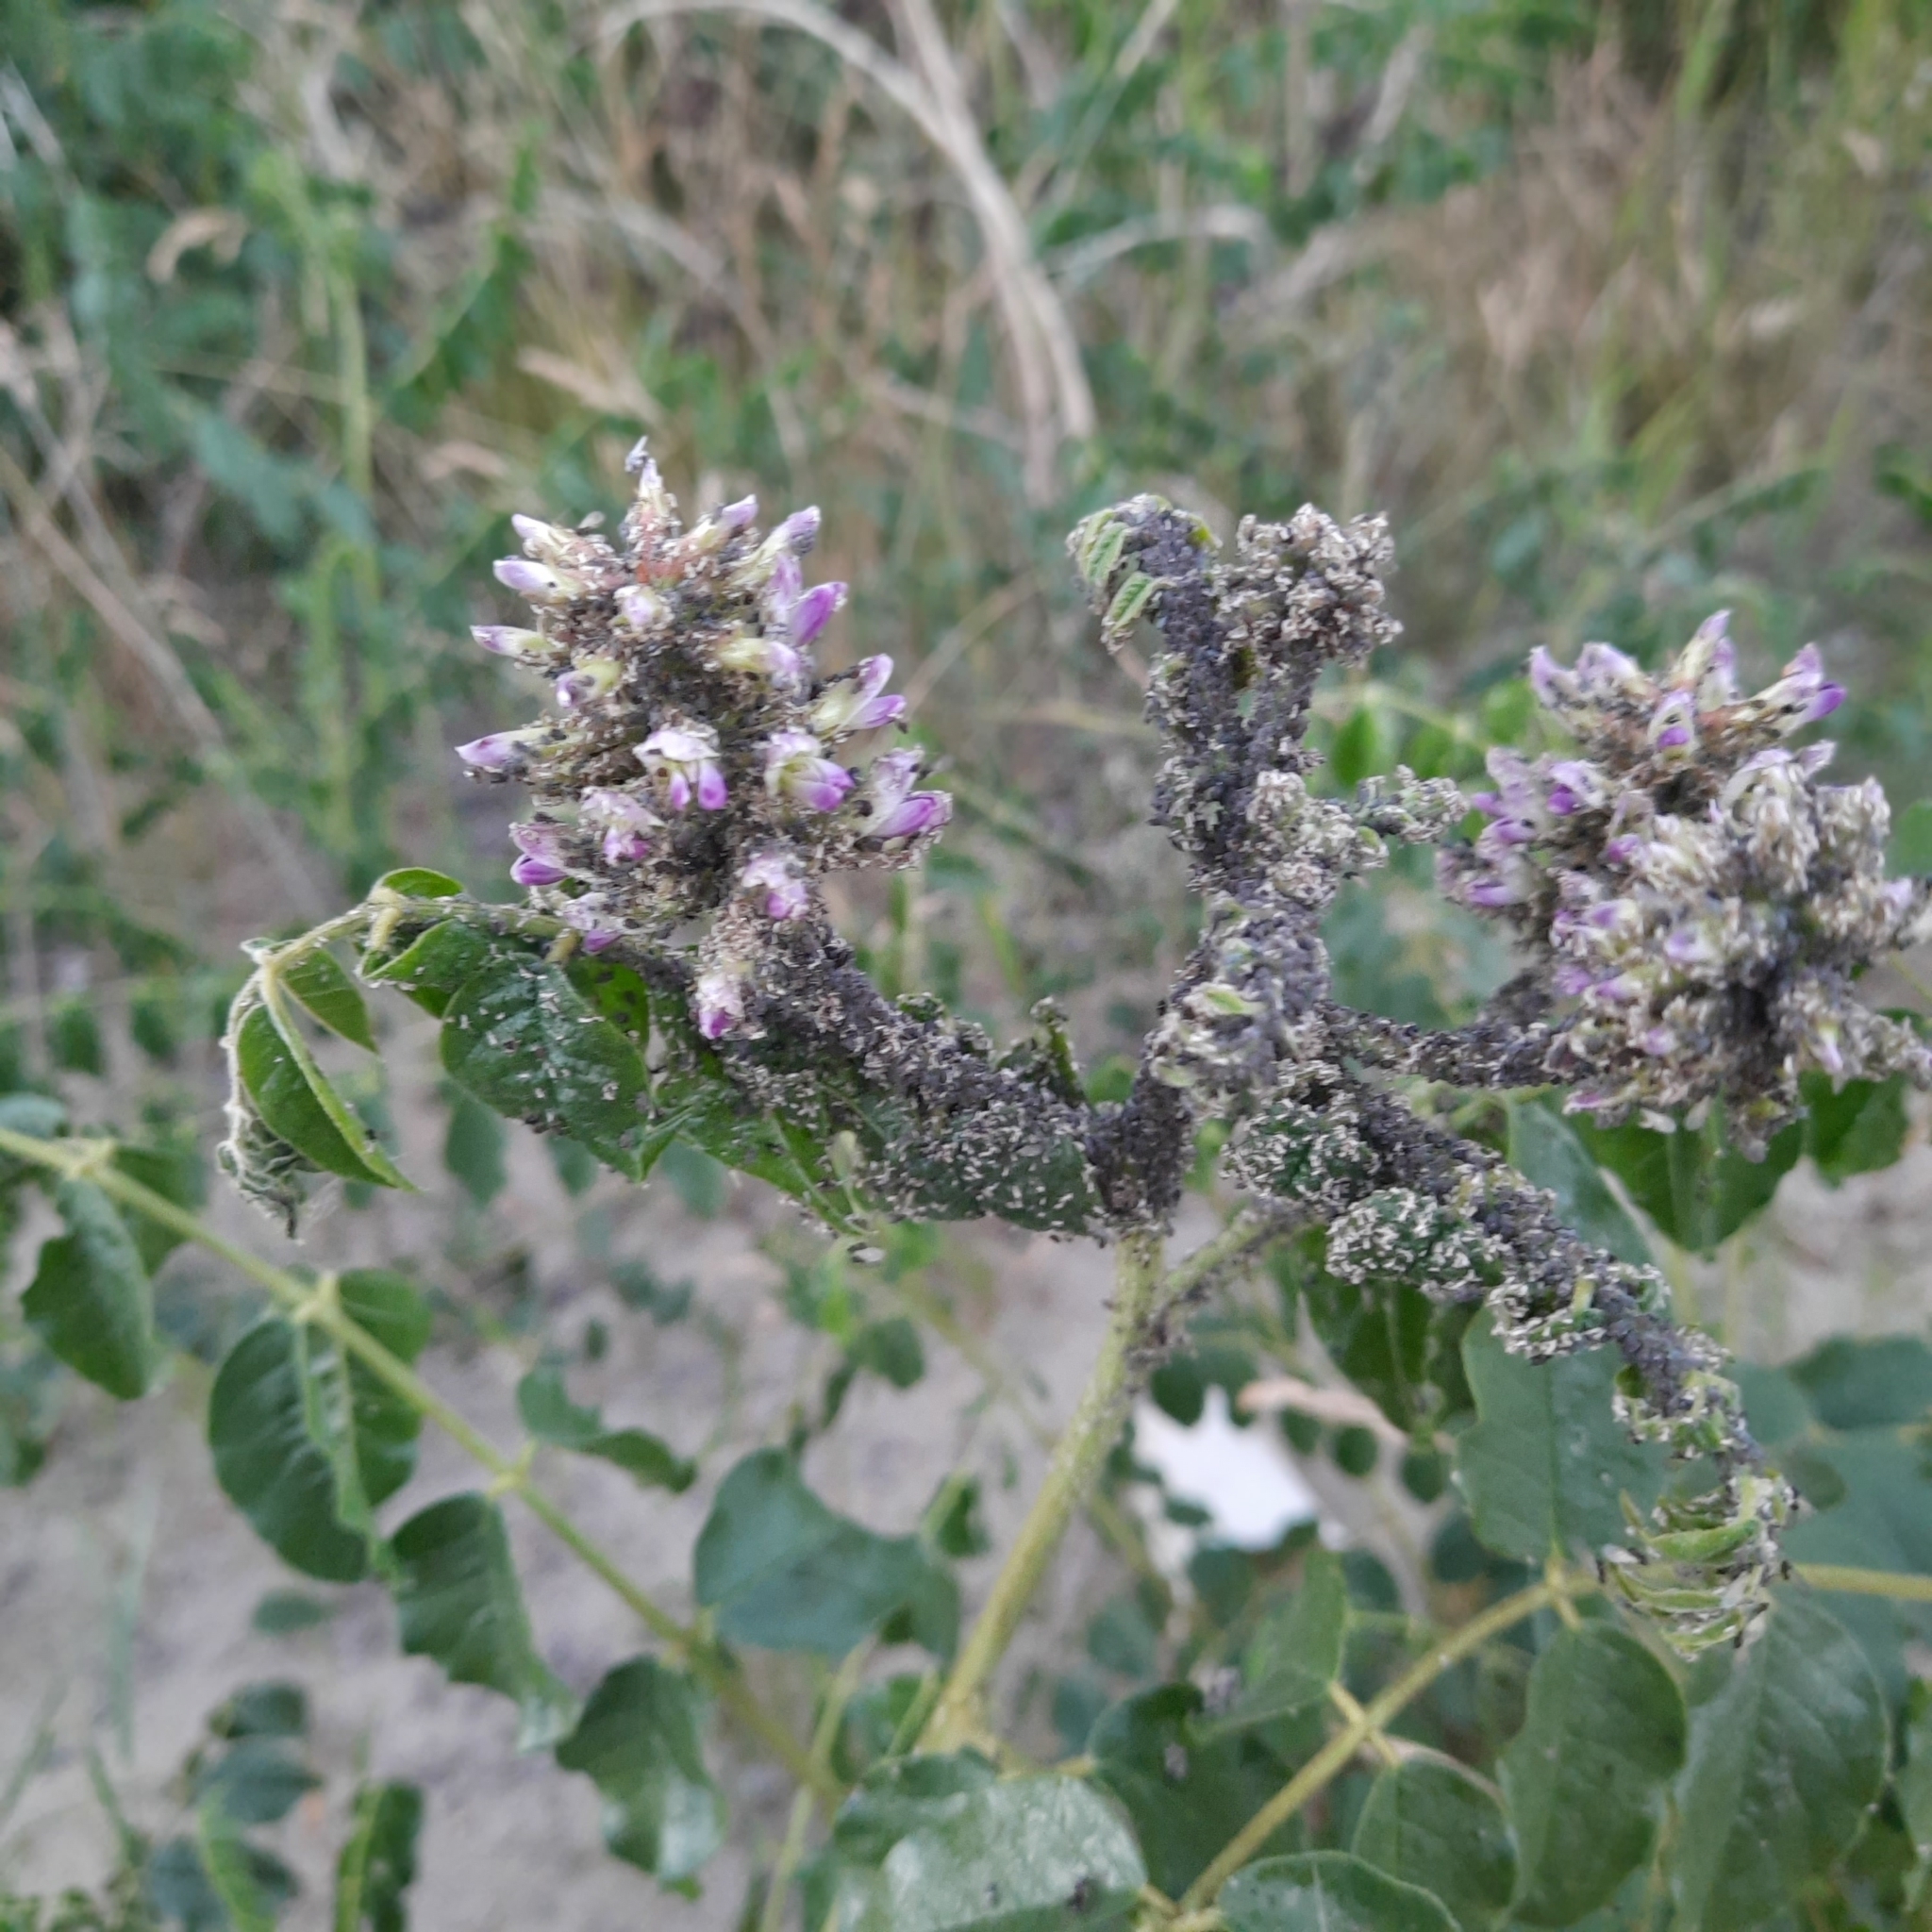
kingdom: Plantae
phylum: Tracheophyta
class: Magnoliopsida
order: Fabales
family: Fabaceae
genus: Glycyrrhiza
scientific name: Glycyrrhiza uralensis
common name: Chinese licorice
